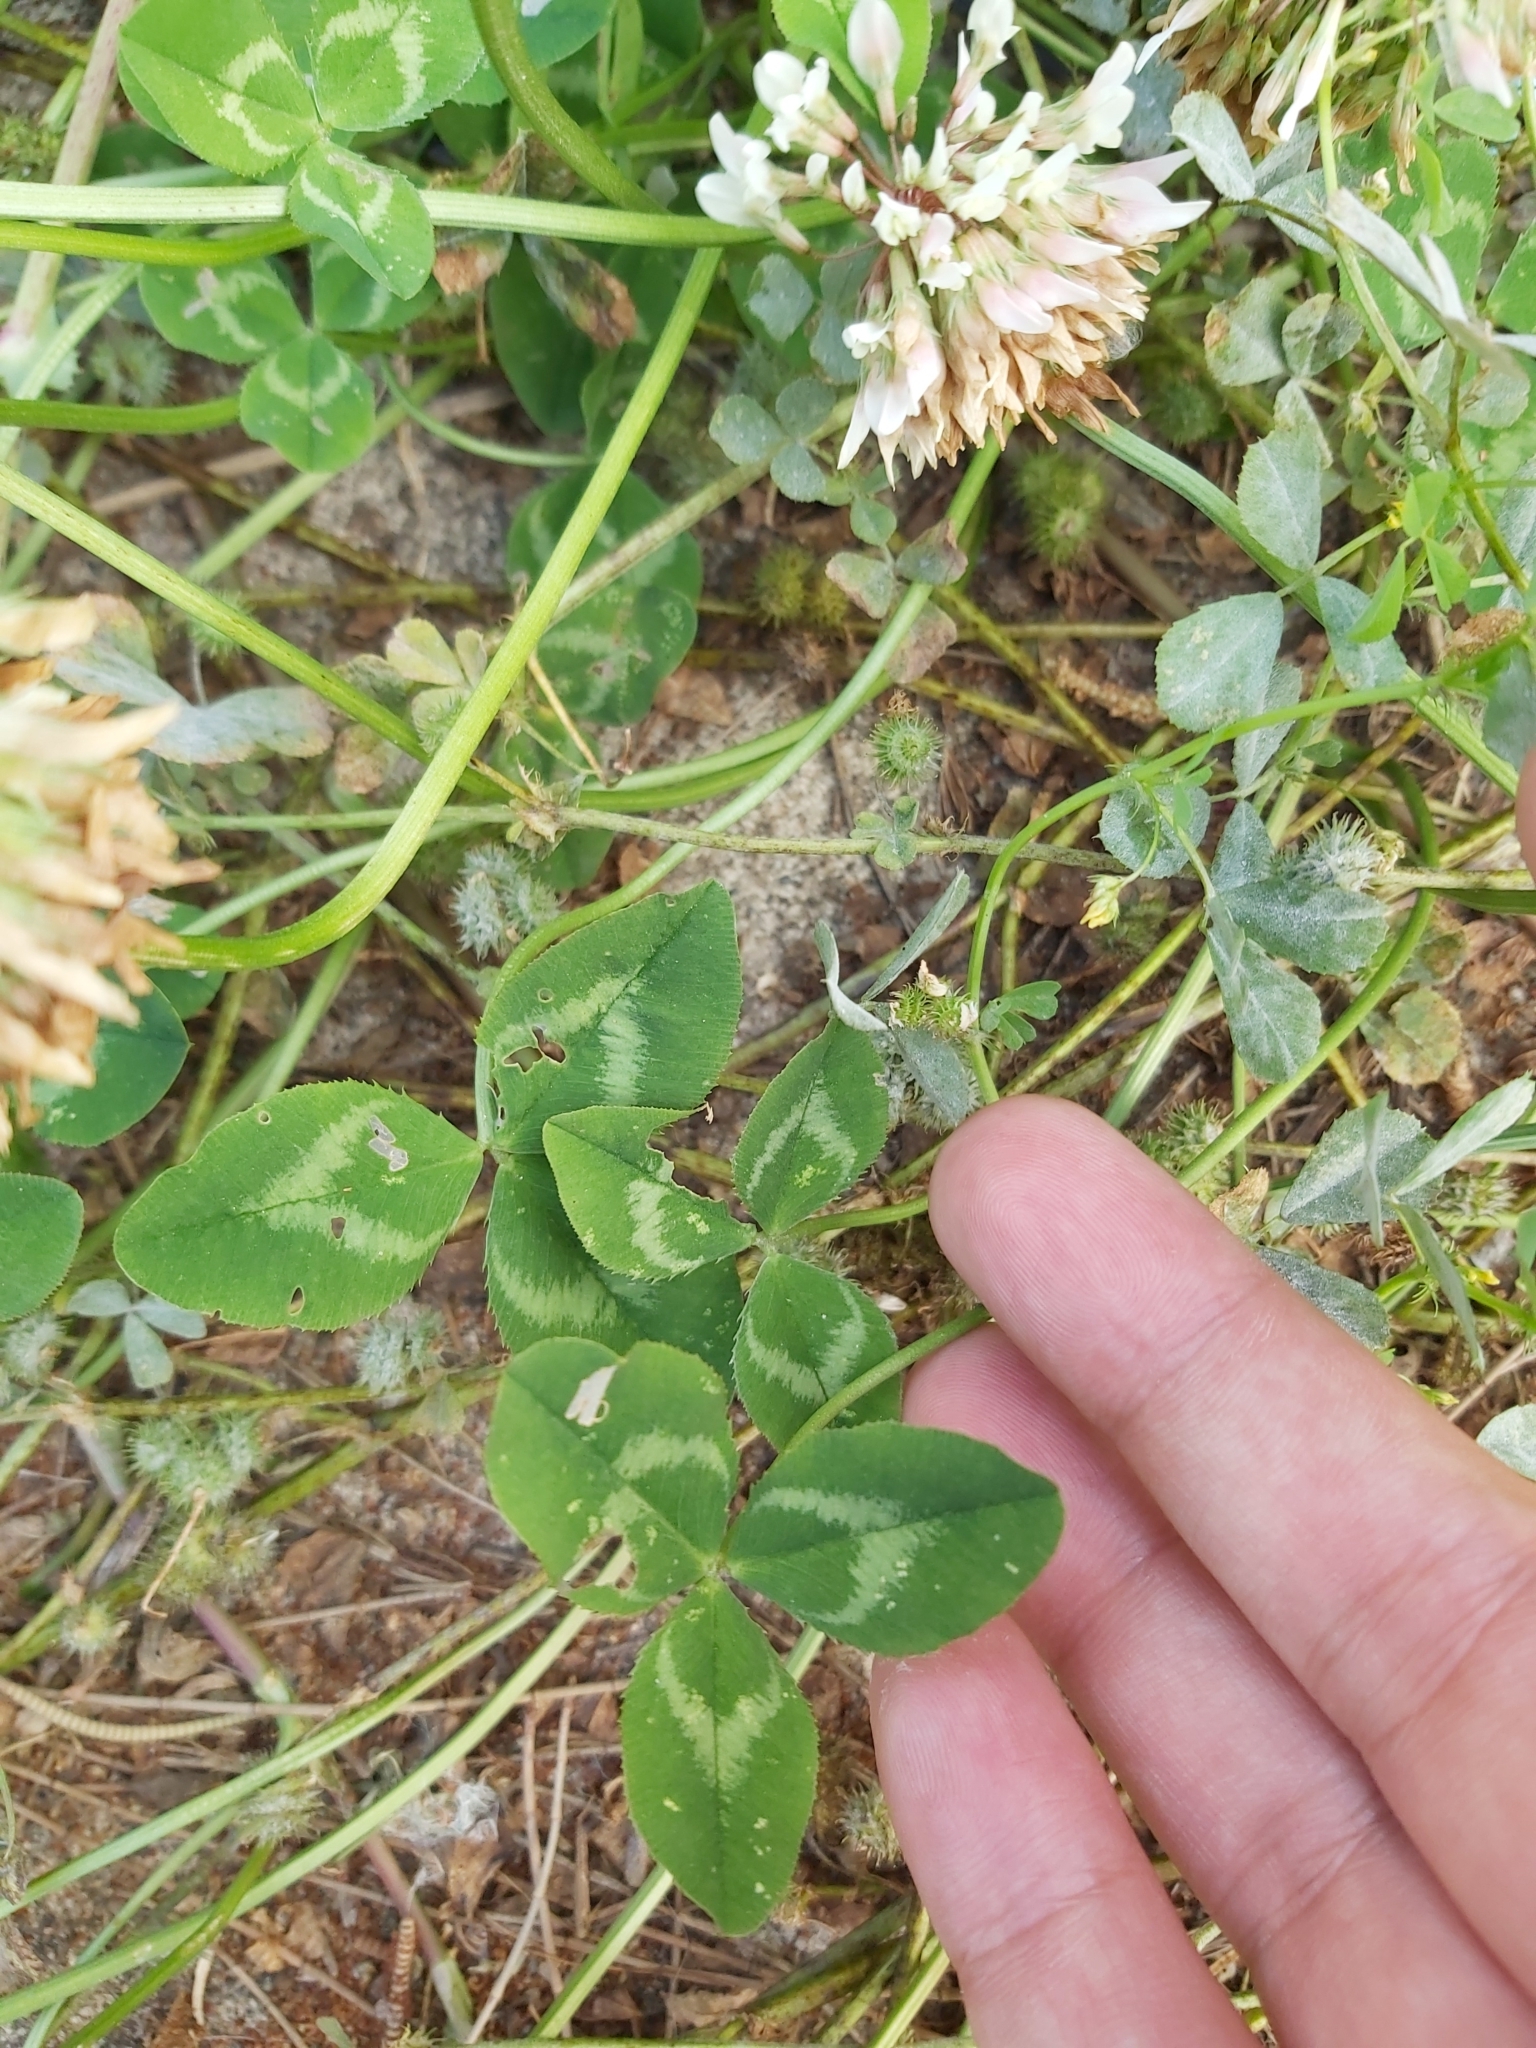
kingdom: Plantae
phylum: Tracheophyta
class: Magnoliopsida
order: Fabales
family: Fabaceae
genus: Trifolium
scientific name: Trifolium repens
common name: White clover
